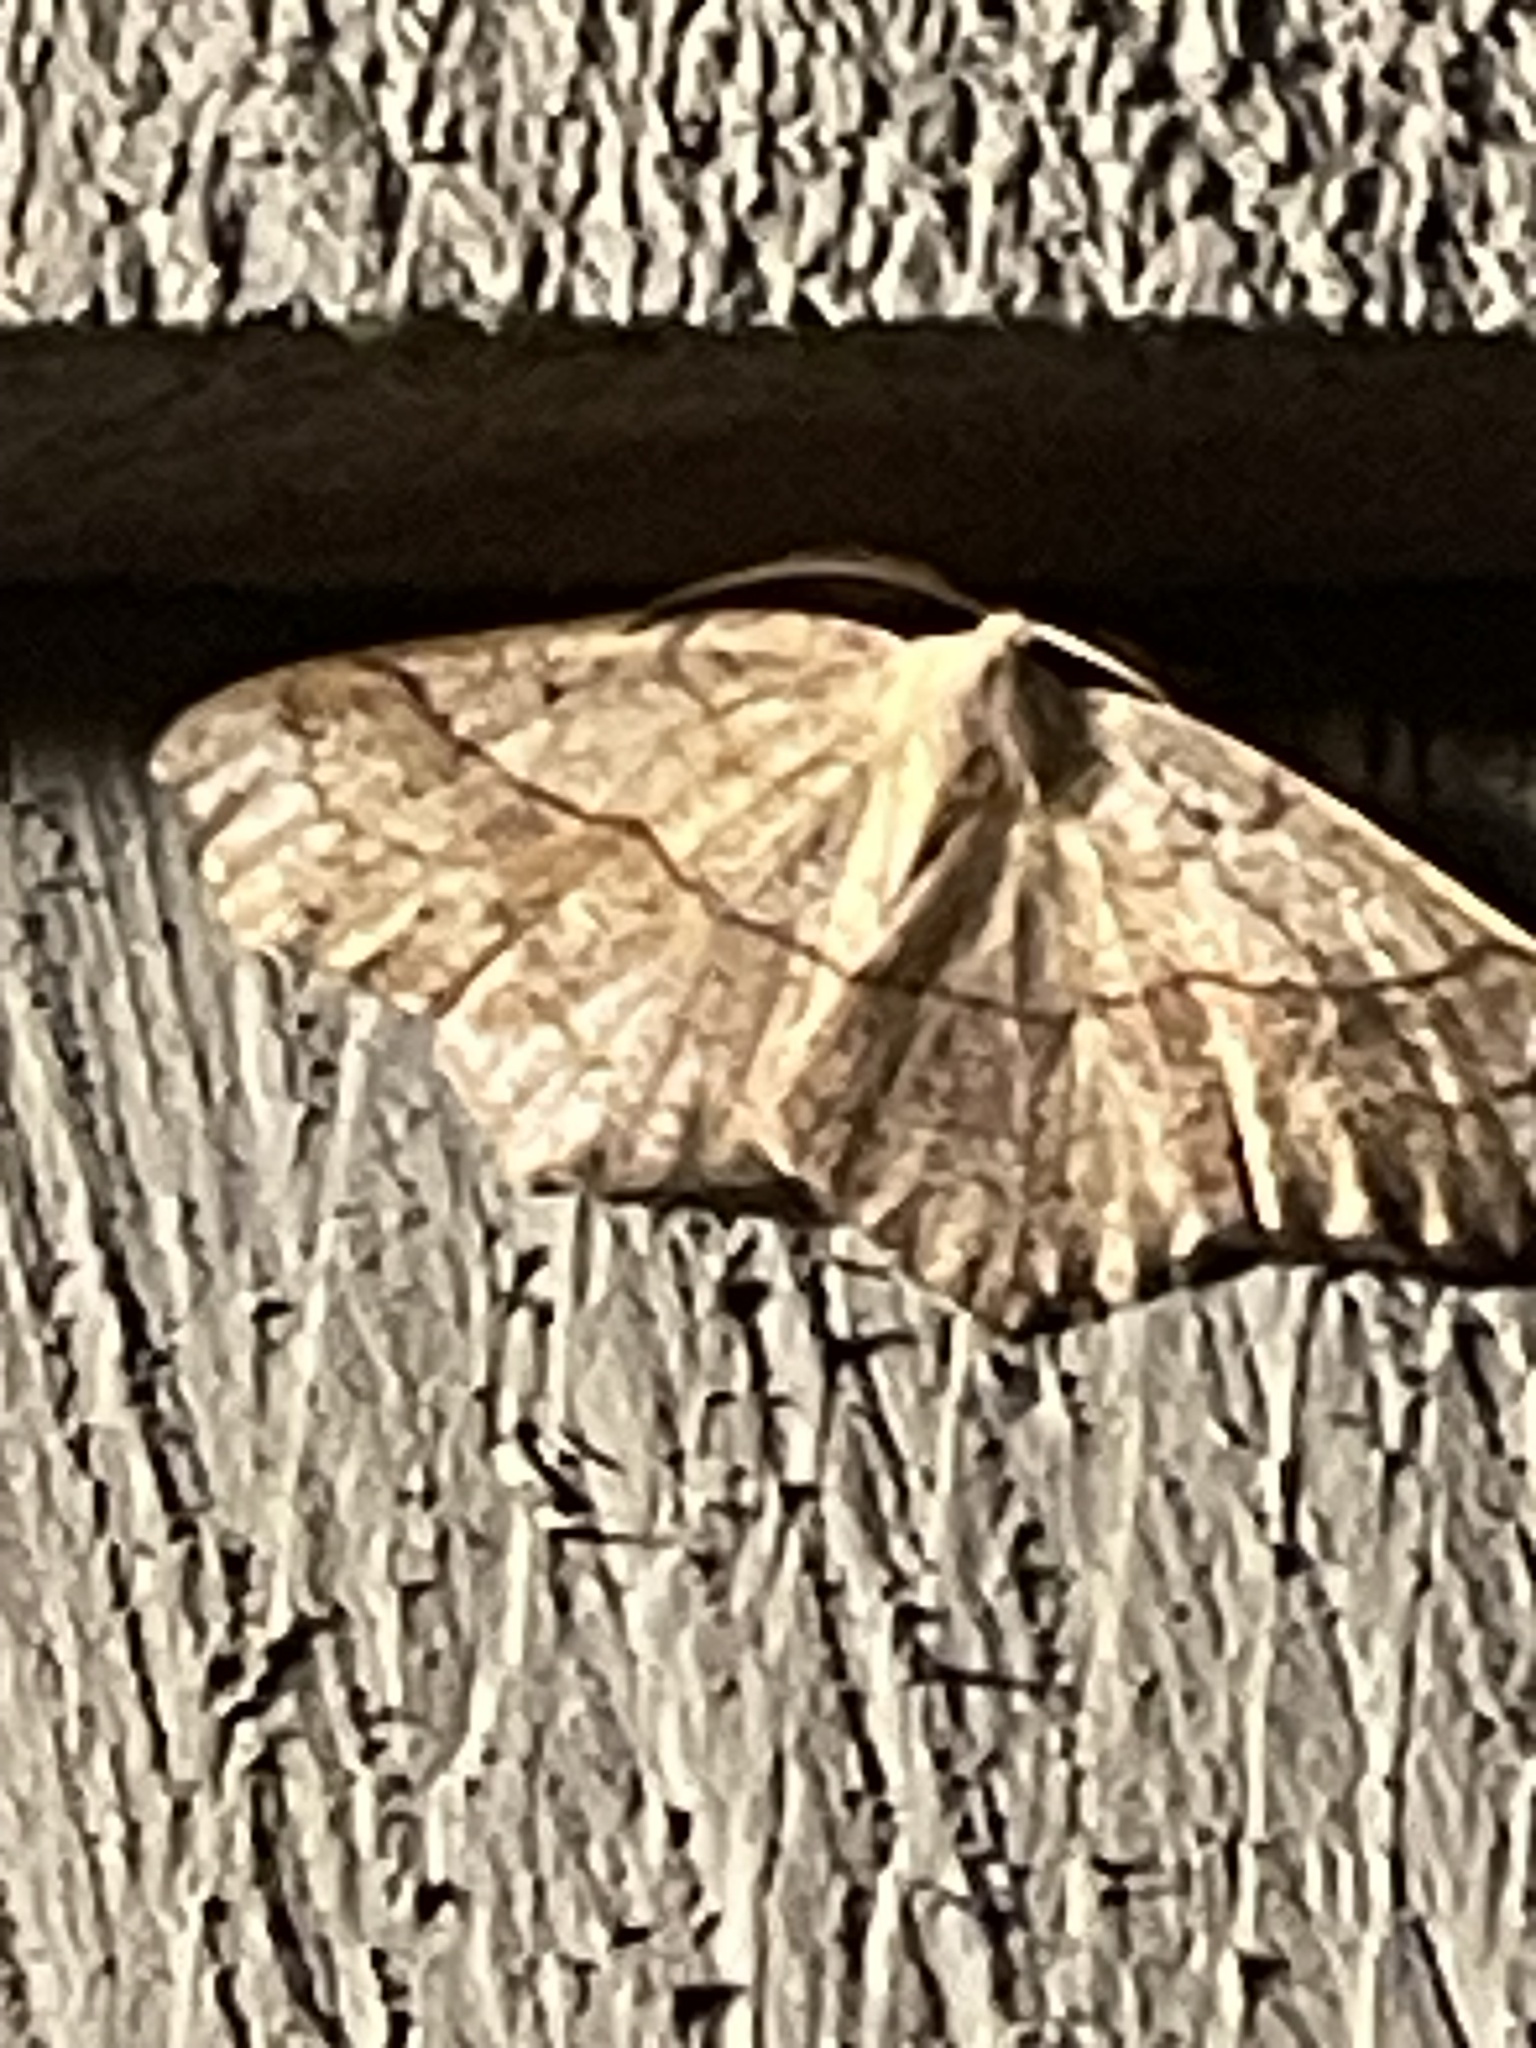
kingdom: Animalia
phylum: Arthropoda
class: Insecta
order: Lepidoptera
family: Geometridae
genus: Besma
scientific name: Besma quercivoraria
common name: Oak besma
